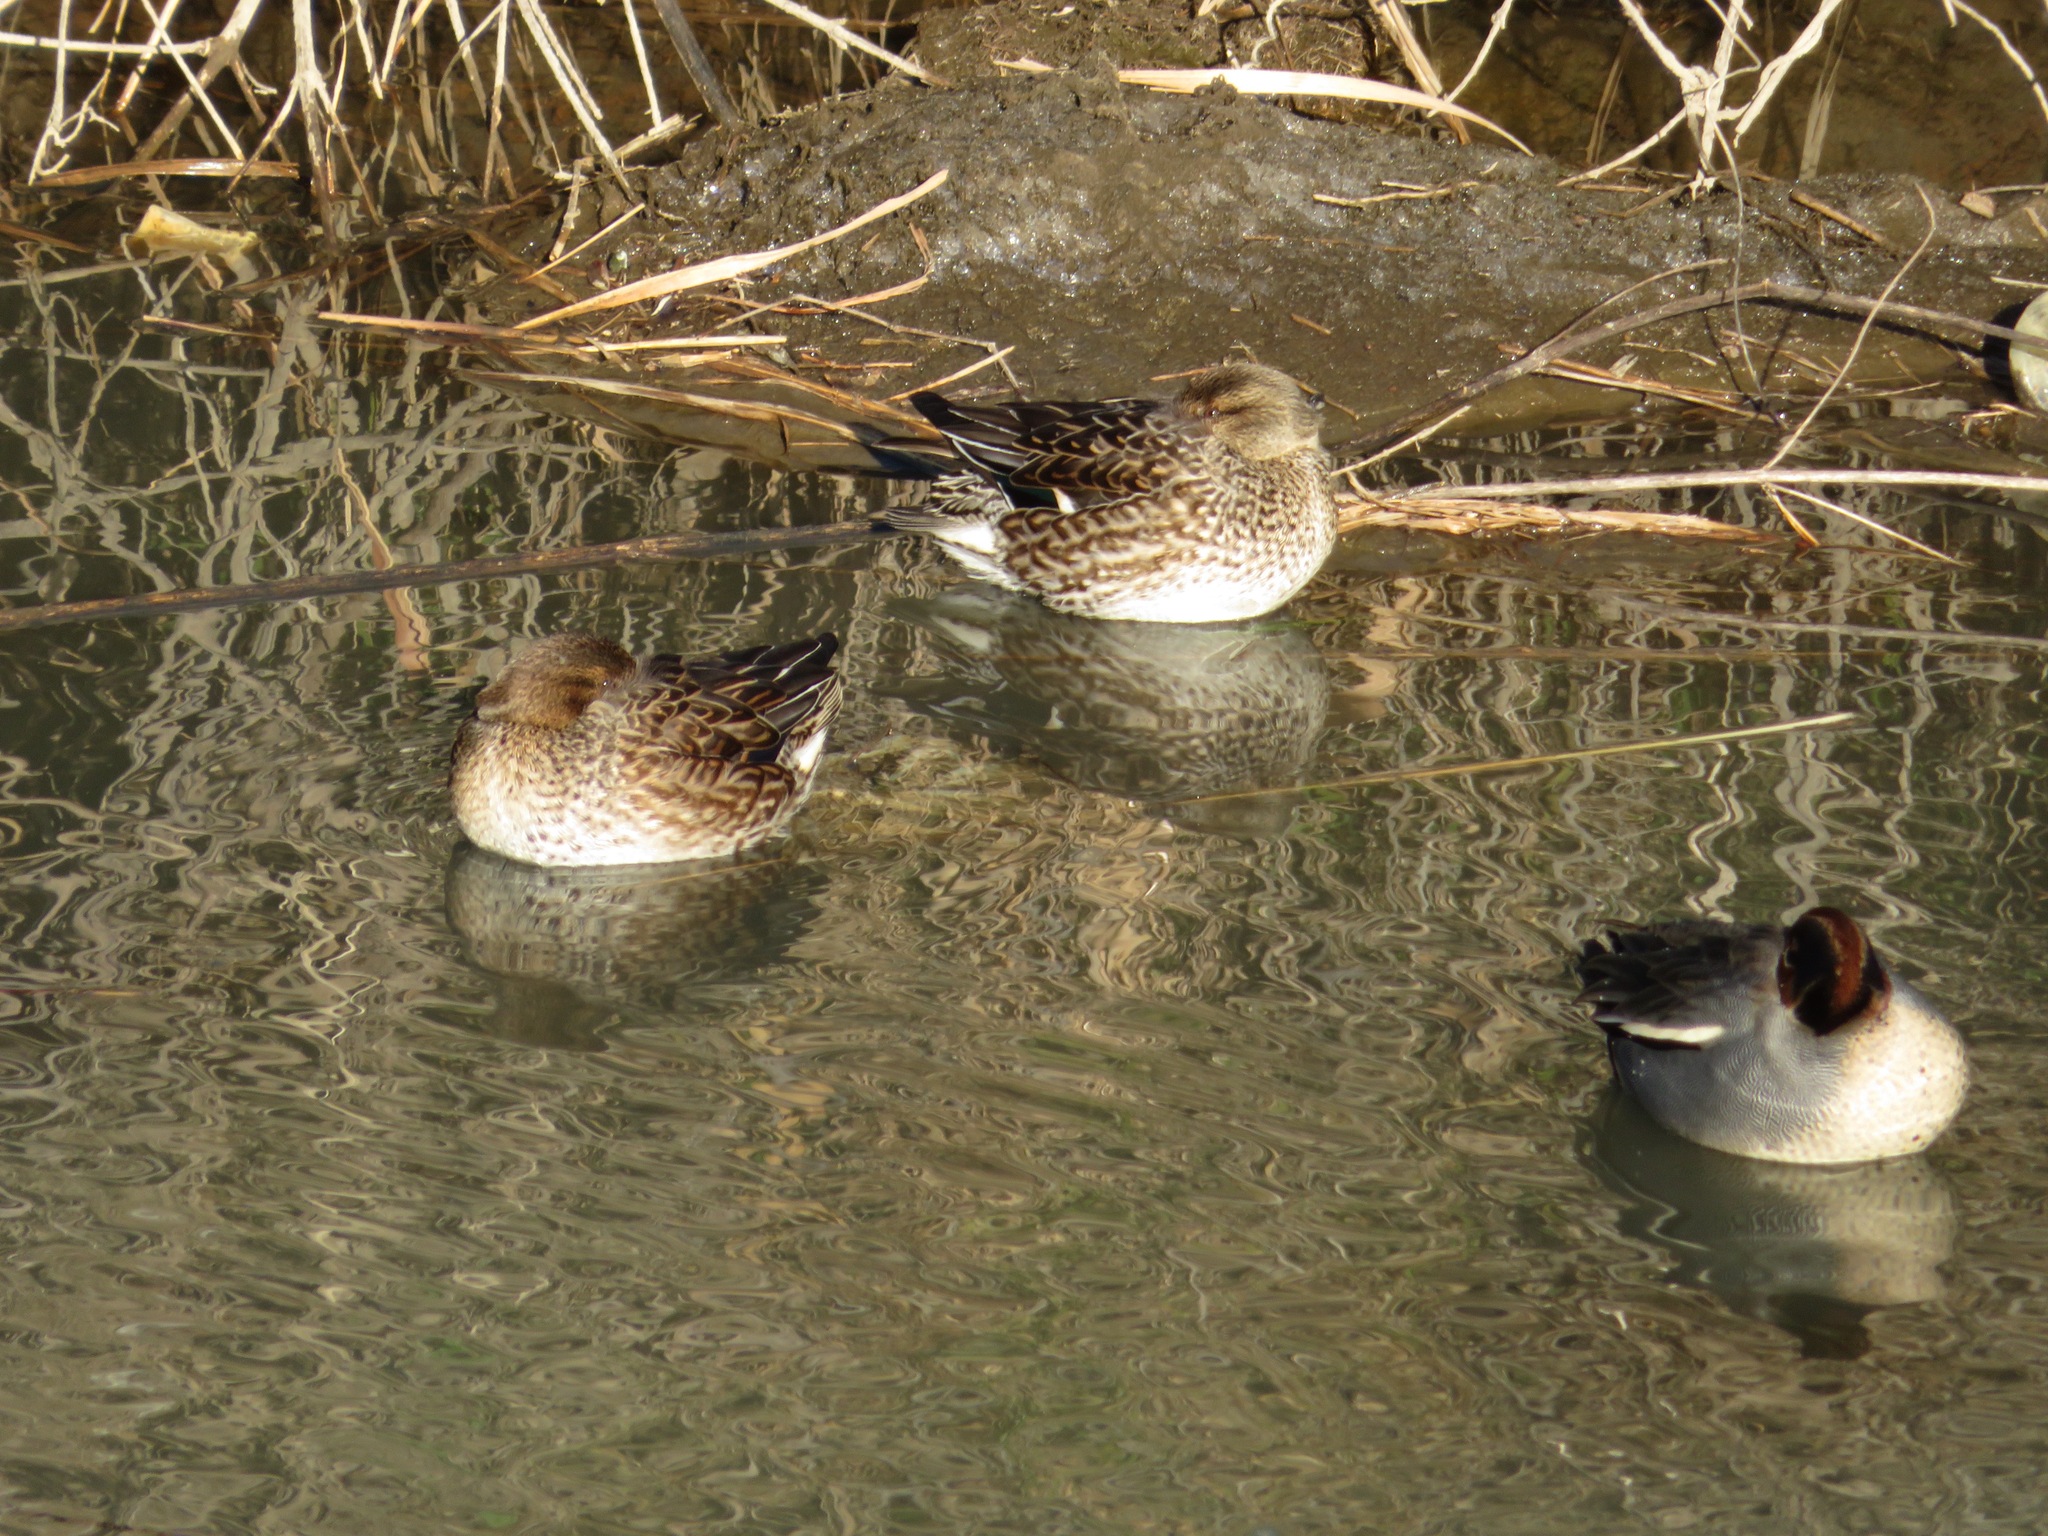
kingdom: Animalia
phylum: Chordata
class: Aves
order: Anseriformes
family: Anatidae
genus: Anas
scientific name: Anas crecca
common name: Eurasian teal
